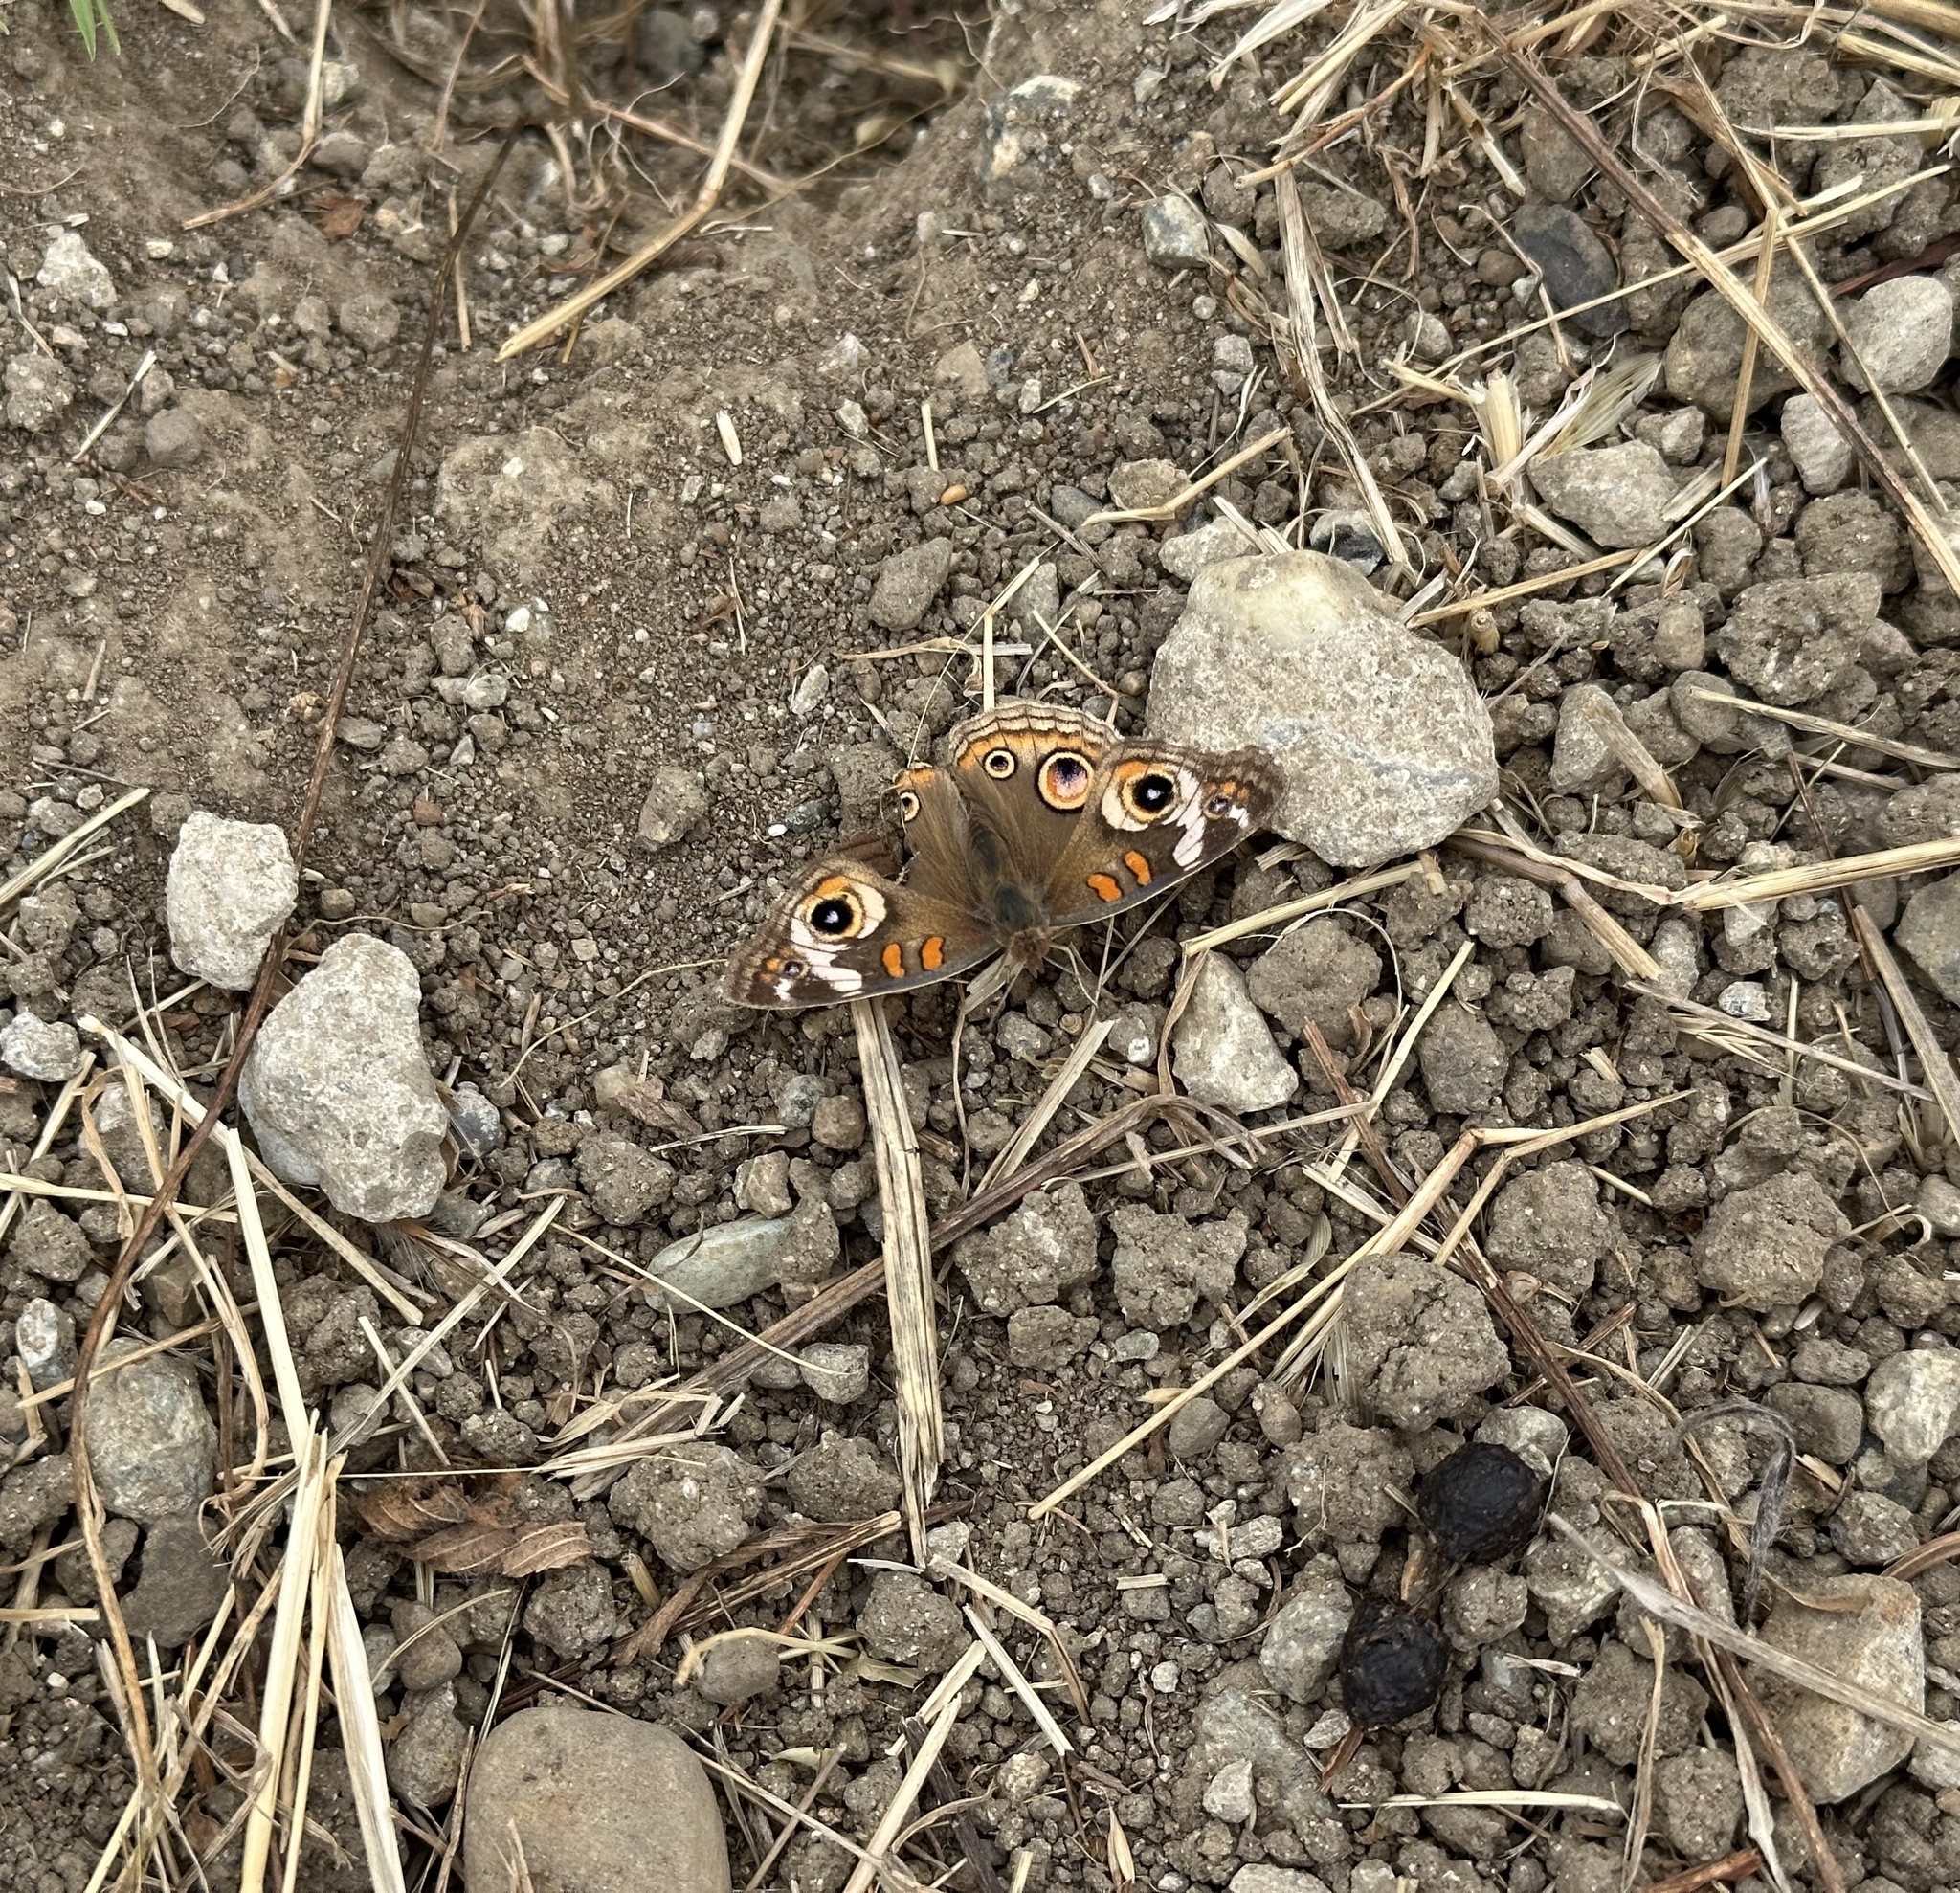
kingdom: Animalia
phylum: Arthropoda
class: Insecta
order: Lepidoptera
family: Nymphalidae
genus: Junonia
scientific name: Junonia grisea
